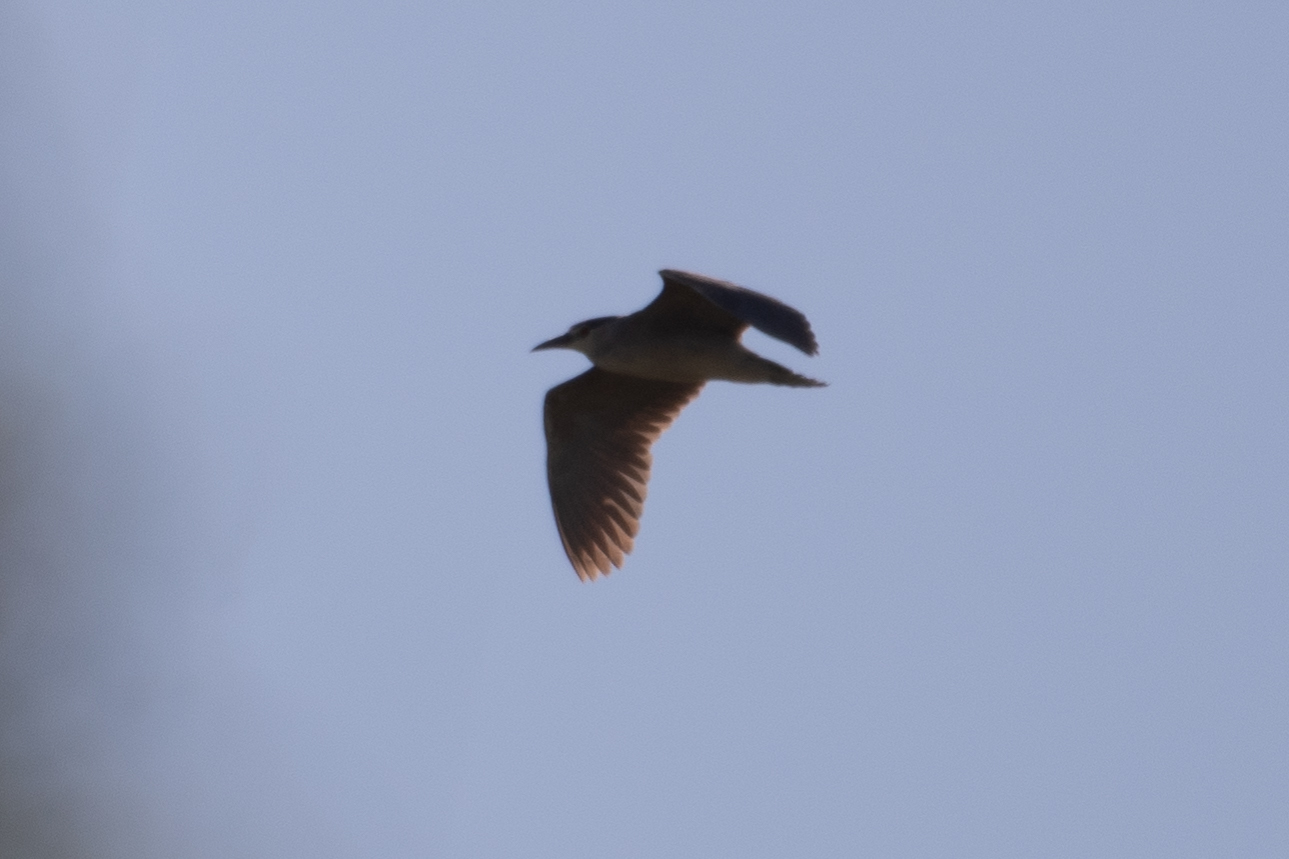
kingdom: Animalia
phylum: Chordata
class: Aves
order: Pelecaniformes
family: Ardeidae
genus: Nycticorax
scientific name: Nycticorax nycticorax
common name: Black-crowned night heron
